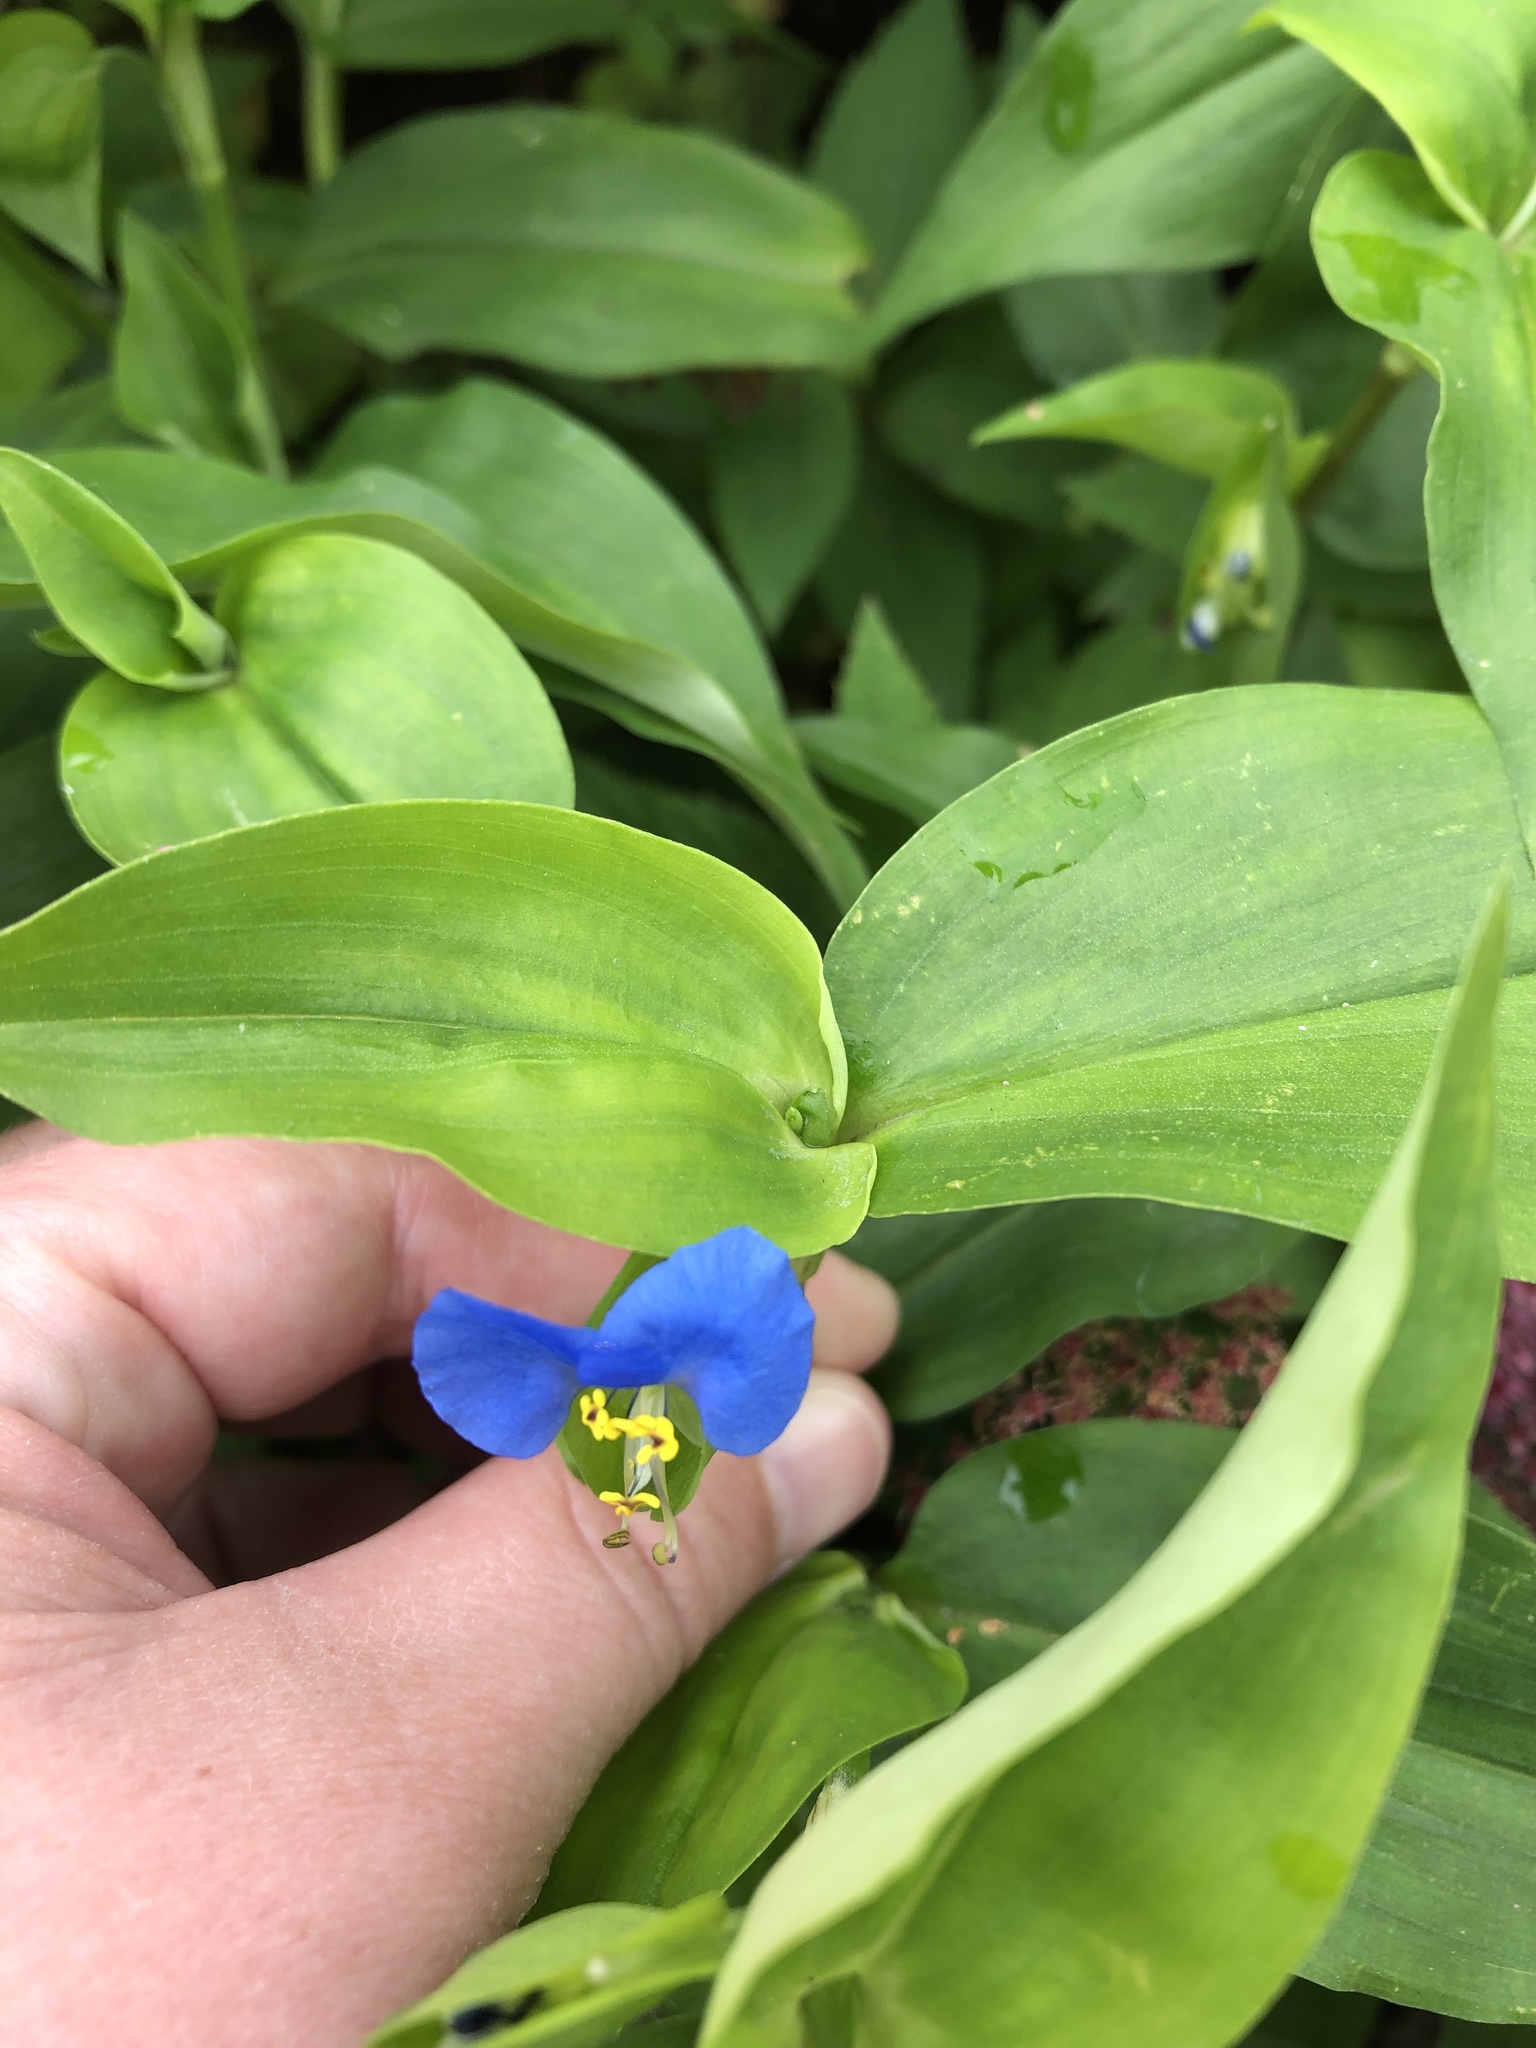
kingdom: Plantae
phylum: Tracheophyta
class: Liliopsida
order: Commelinales
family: Commelinaceae
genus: Commelina
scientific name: Commelina communis
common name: Asiatic dayflower
